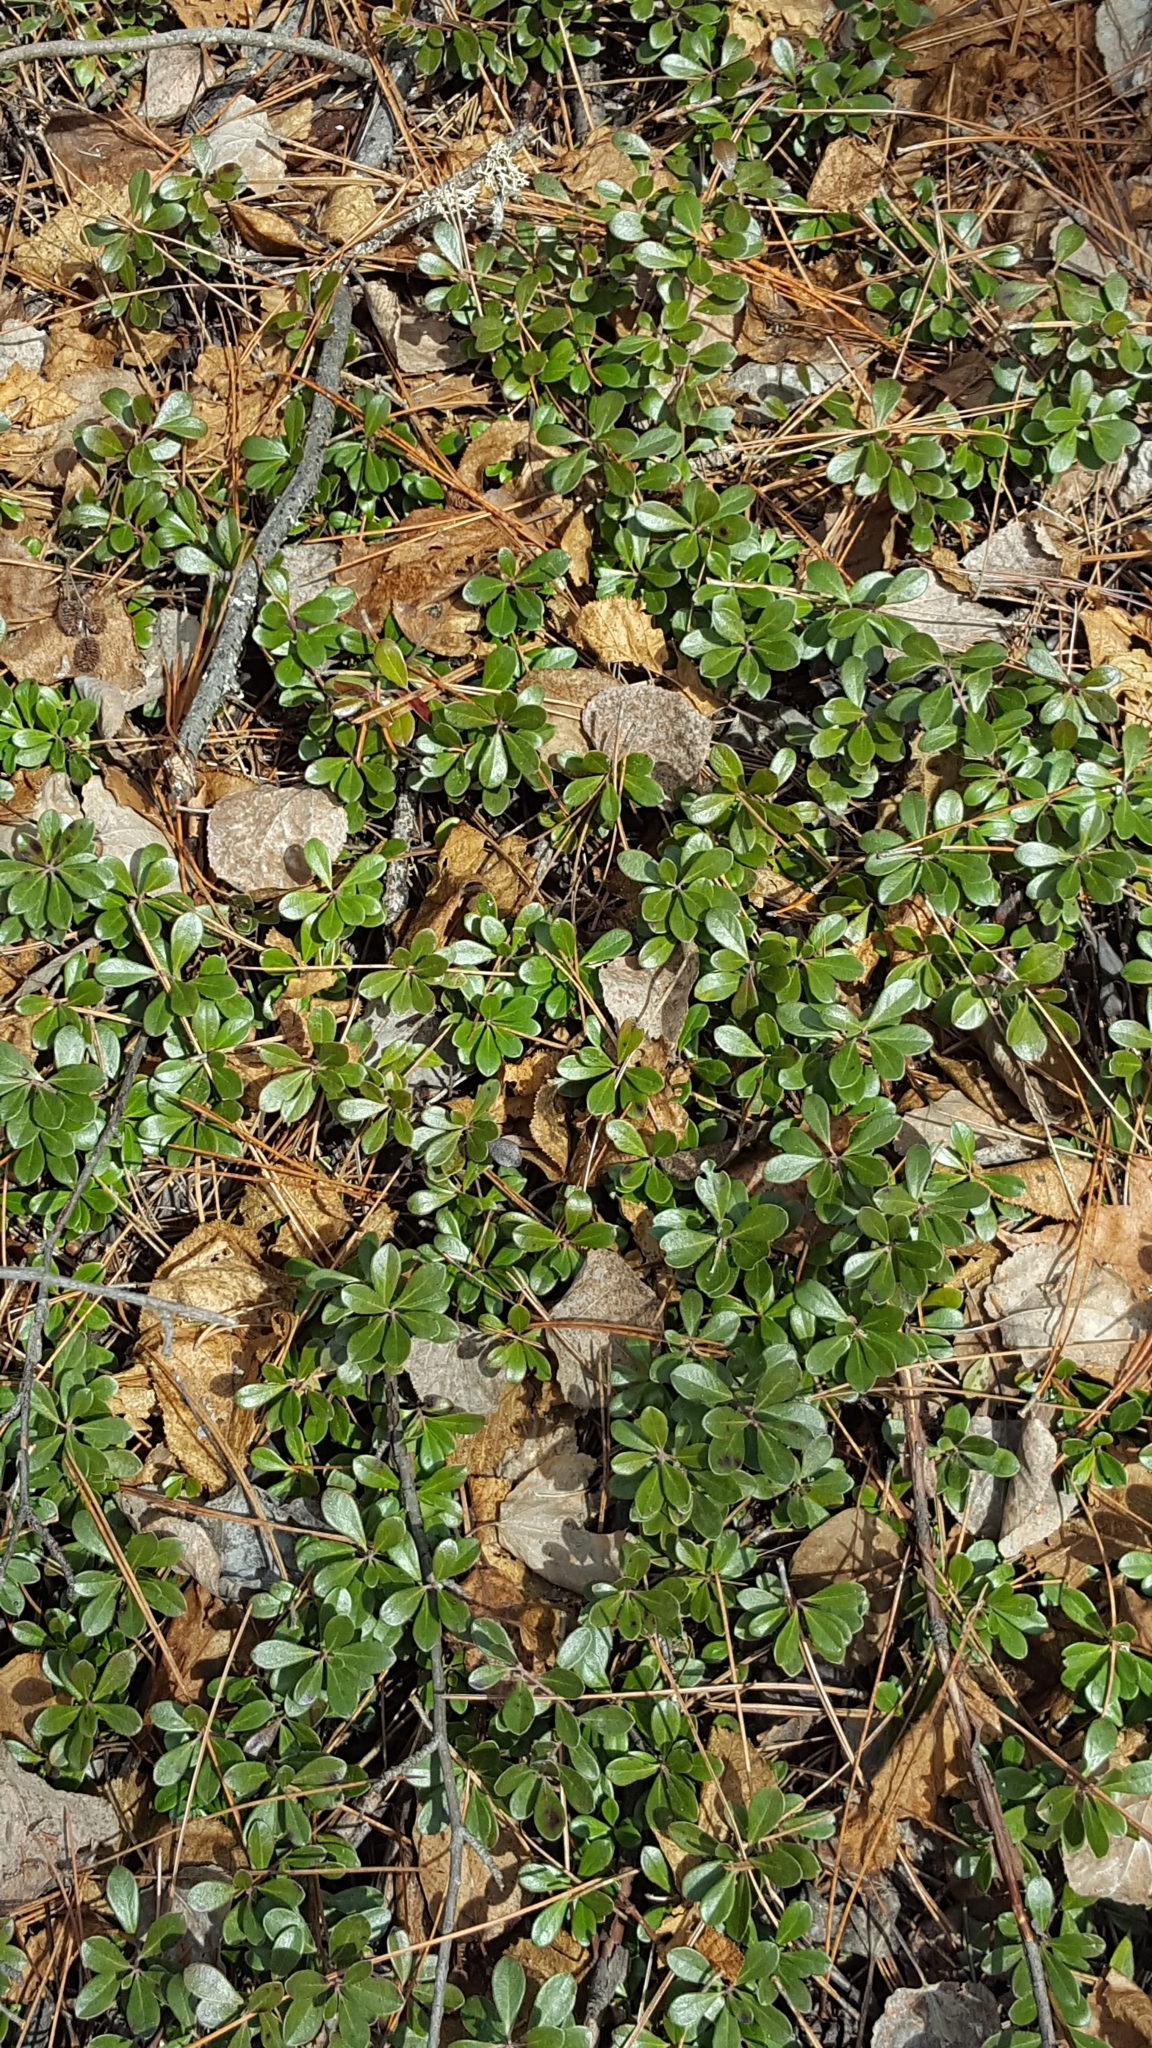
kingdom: Plantae
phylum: Tracheophyta
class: Magnoliopsida
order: Ericales
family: Ericaceae
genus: Arctostaphylos
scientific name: Arctostaphylos uva-ursi
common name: Bearberry
